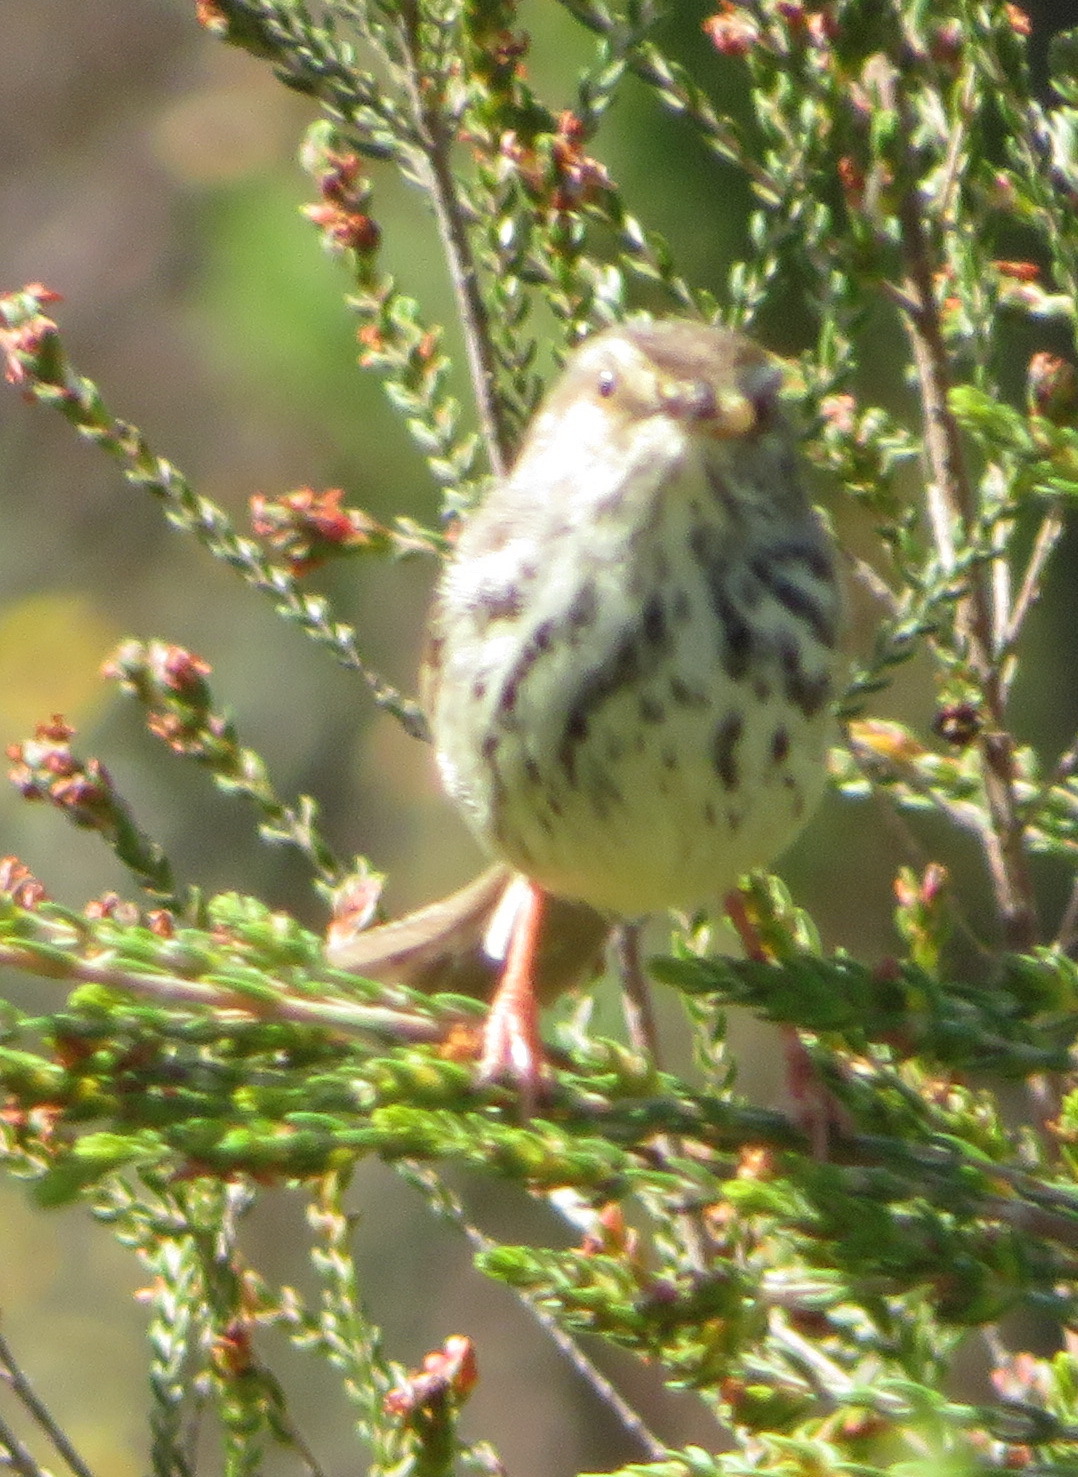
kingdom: Animalia
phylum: Chordata
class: Aves
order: Passeriformes
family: Cisticolidae
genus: Prinia
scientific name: Prinia maculosa
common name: Karoo prinia
